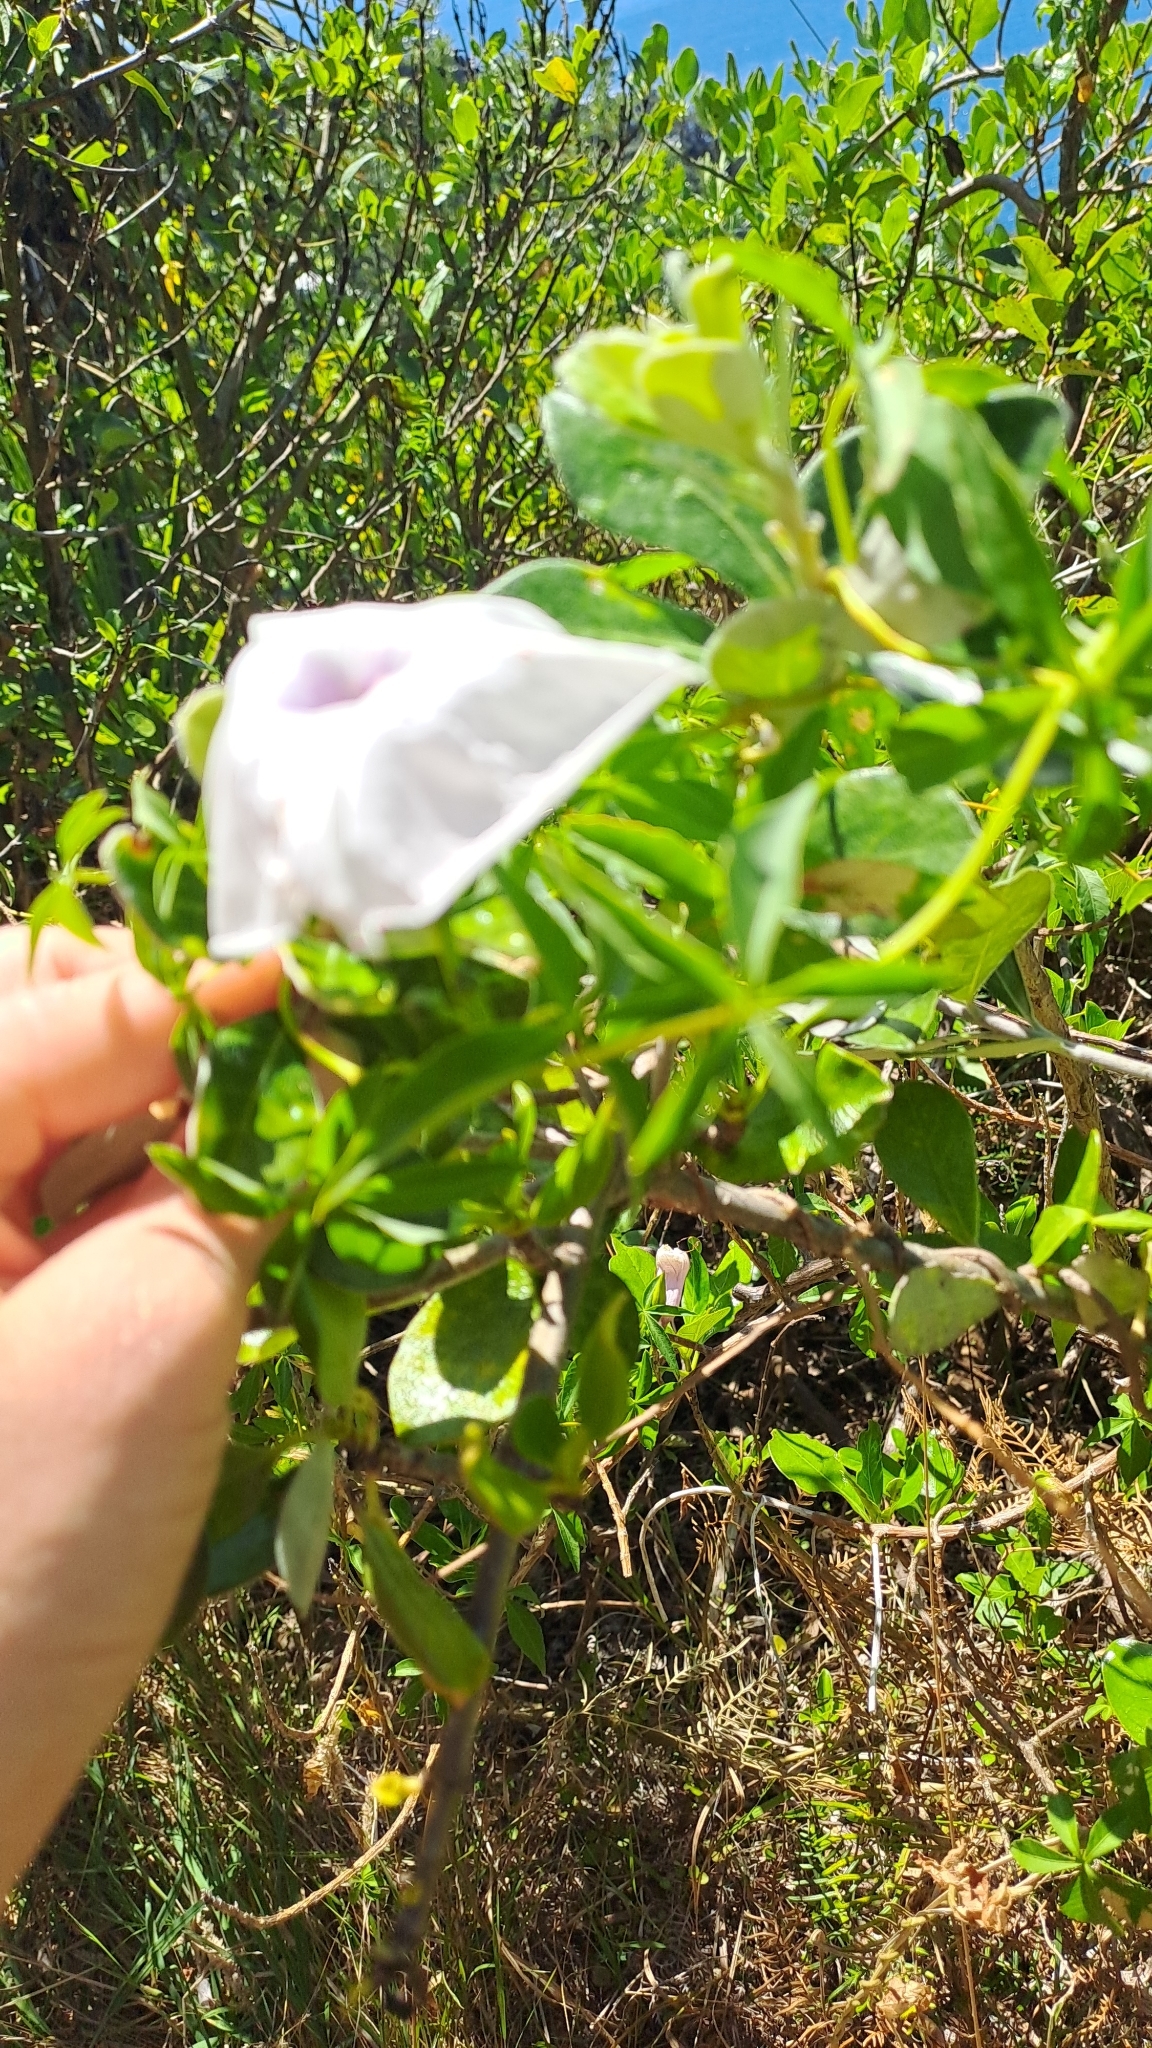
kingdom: Plantae
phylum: Tracheophyta
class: Magnoliopsida
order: Solanales
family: Convolvulaceae
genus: Ipomoea
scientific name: Ipomoea cairica
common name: Mile a minute vine
